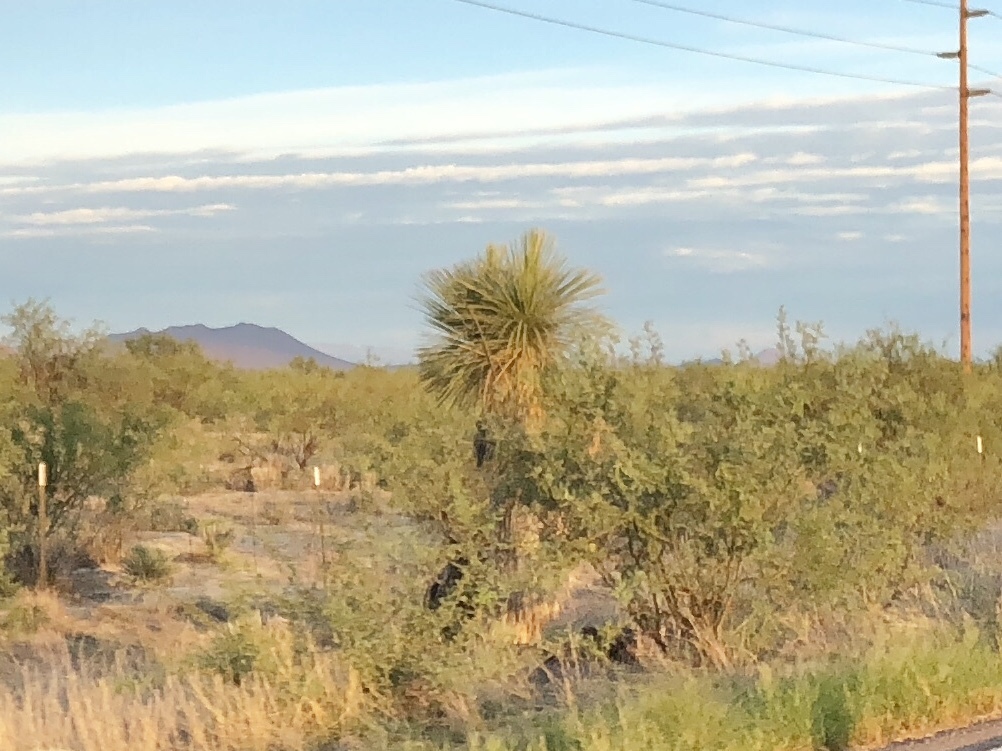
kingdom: Plantae
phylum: Tracheophyta
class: Liliopsida
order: Asparagales
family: Asparagaceae
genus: Yucca
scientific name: Yucca elata
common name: Palmella
